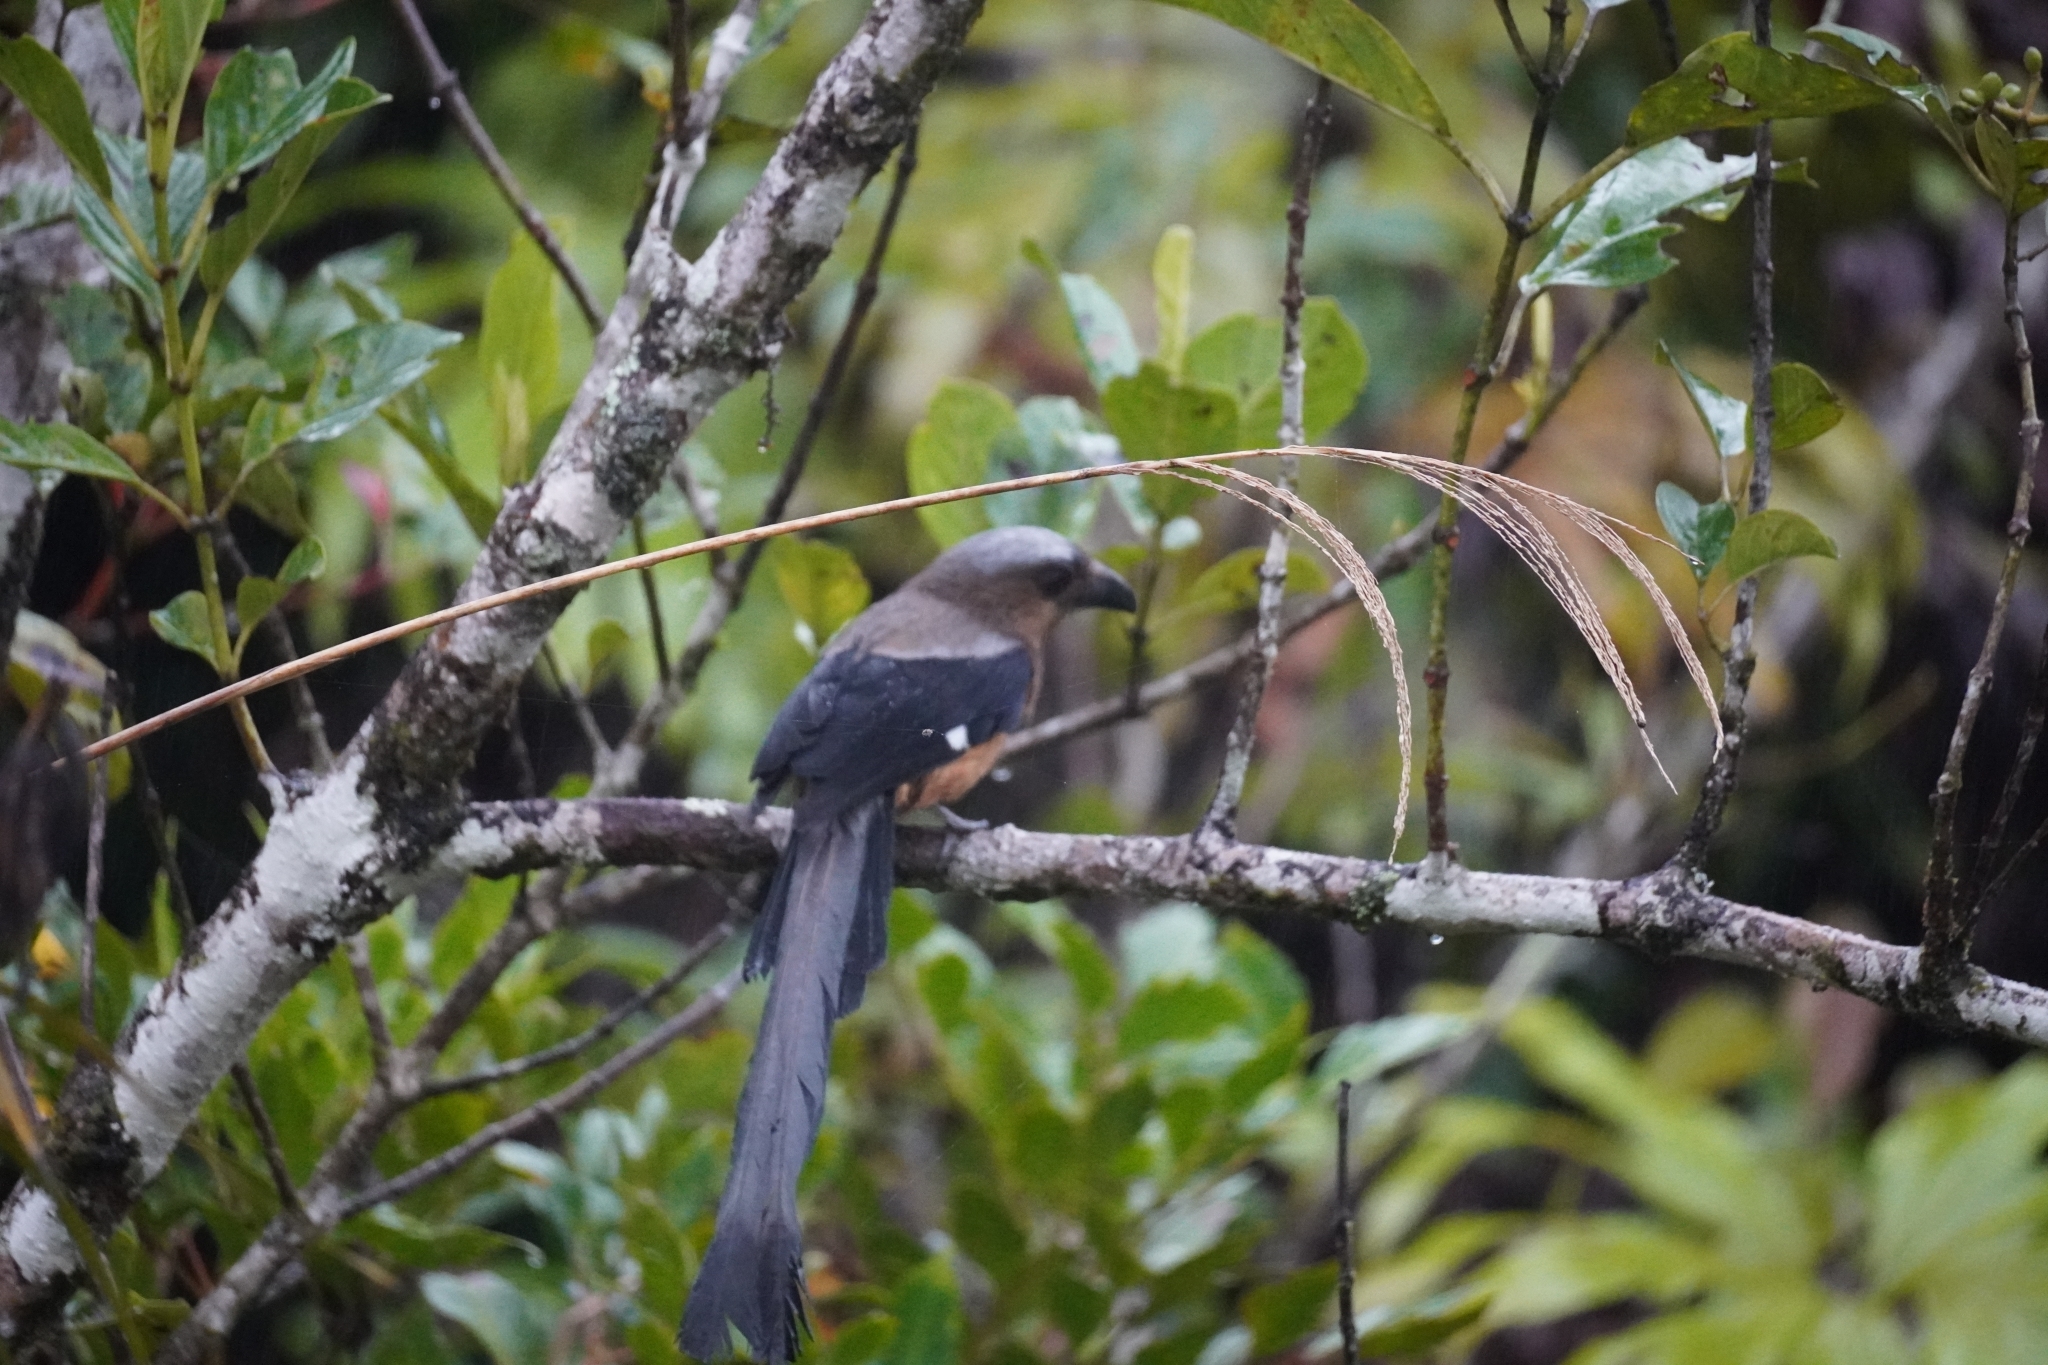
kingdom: Animalia
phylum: Chordata
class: Aves
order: Passeriformes
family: Corvidae
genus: Dendrocitta
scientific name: Dendrocitta cinerascens
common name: Bornean treepie
